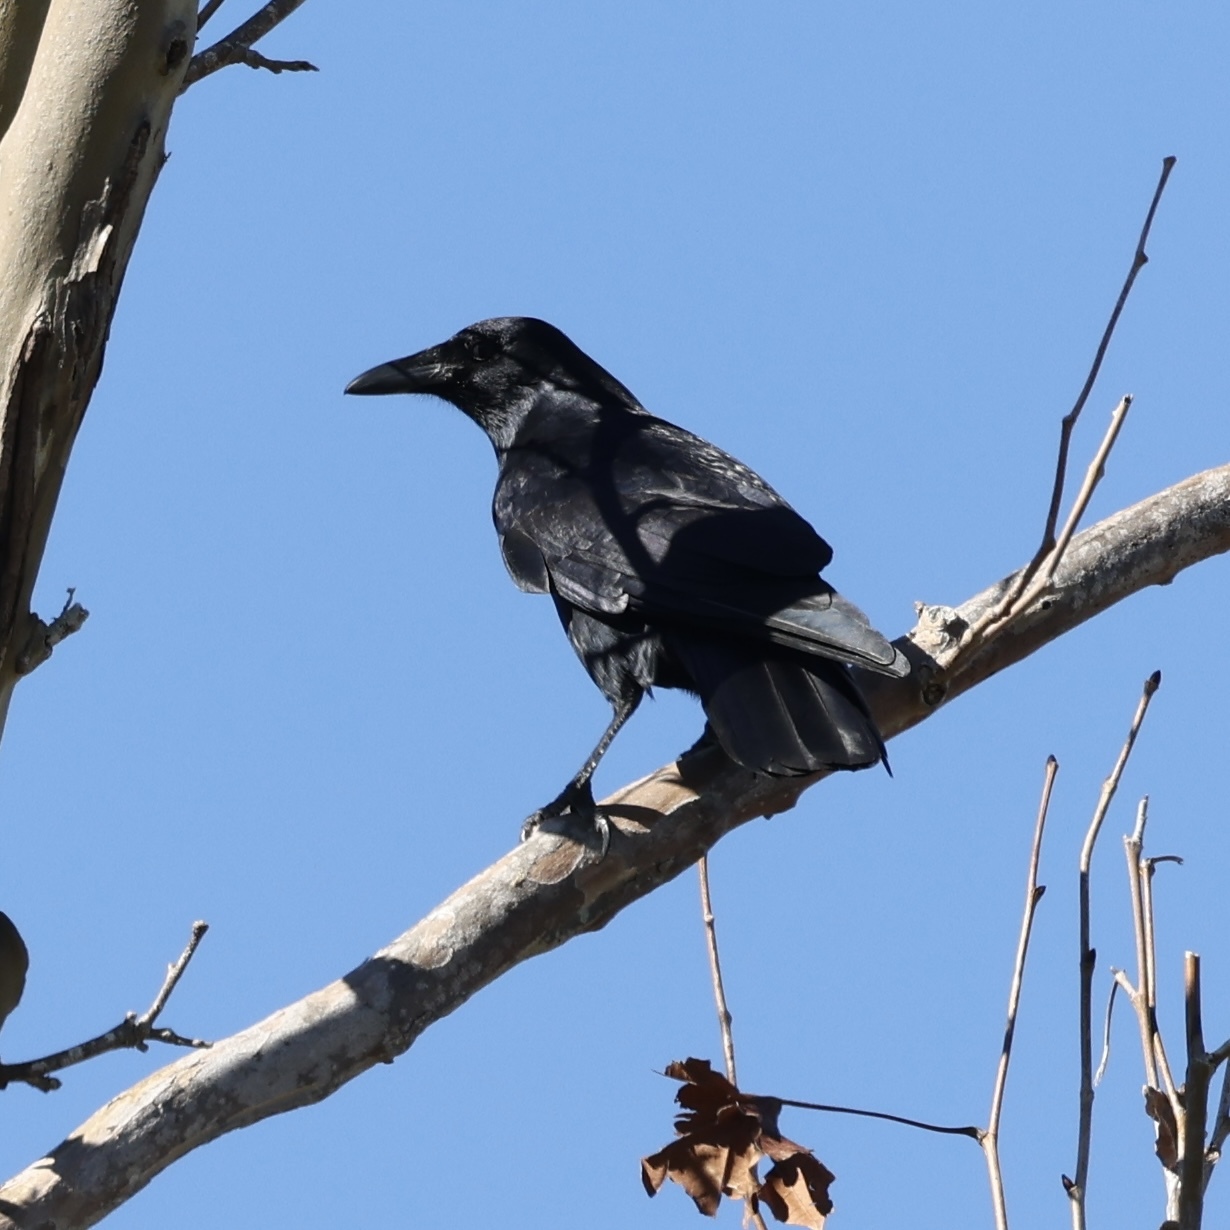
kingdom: Animalia
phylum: Chordata
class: Aves
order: Passeriformes
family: Corvidae
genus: Corvus
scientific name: Corvus ossifragus
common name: Fish crow
